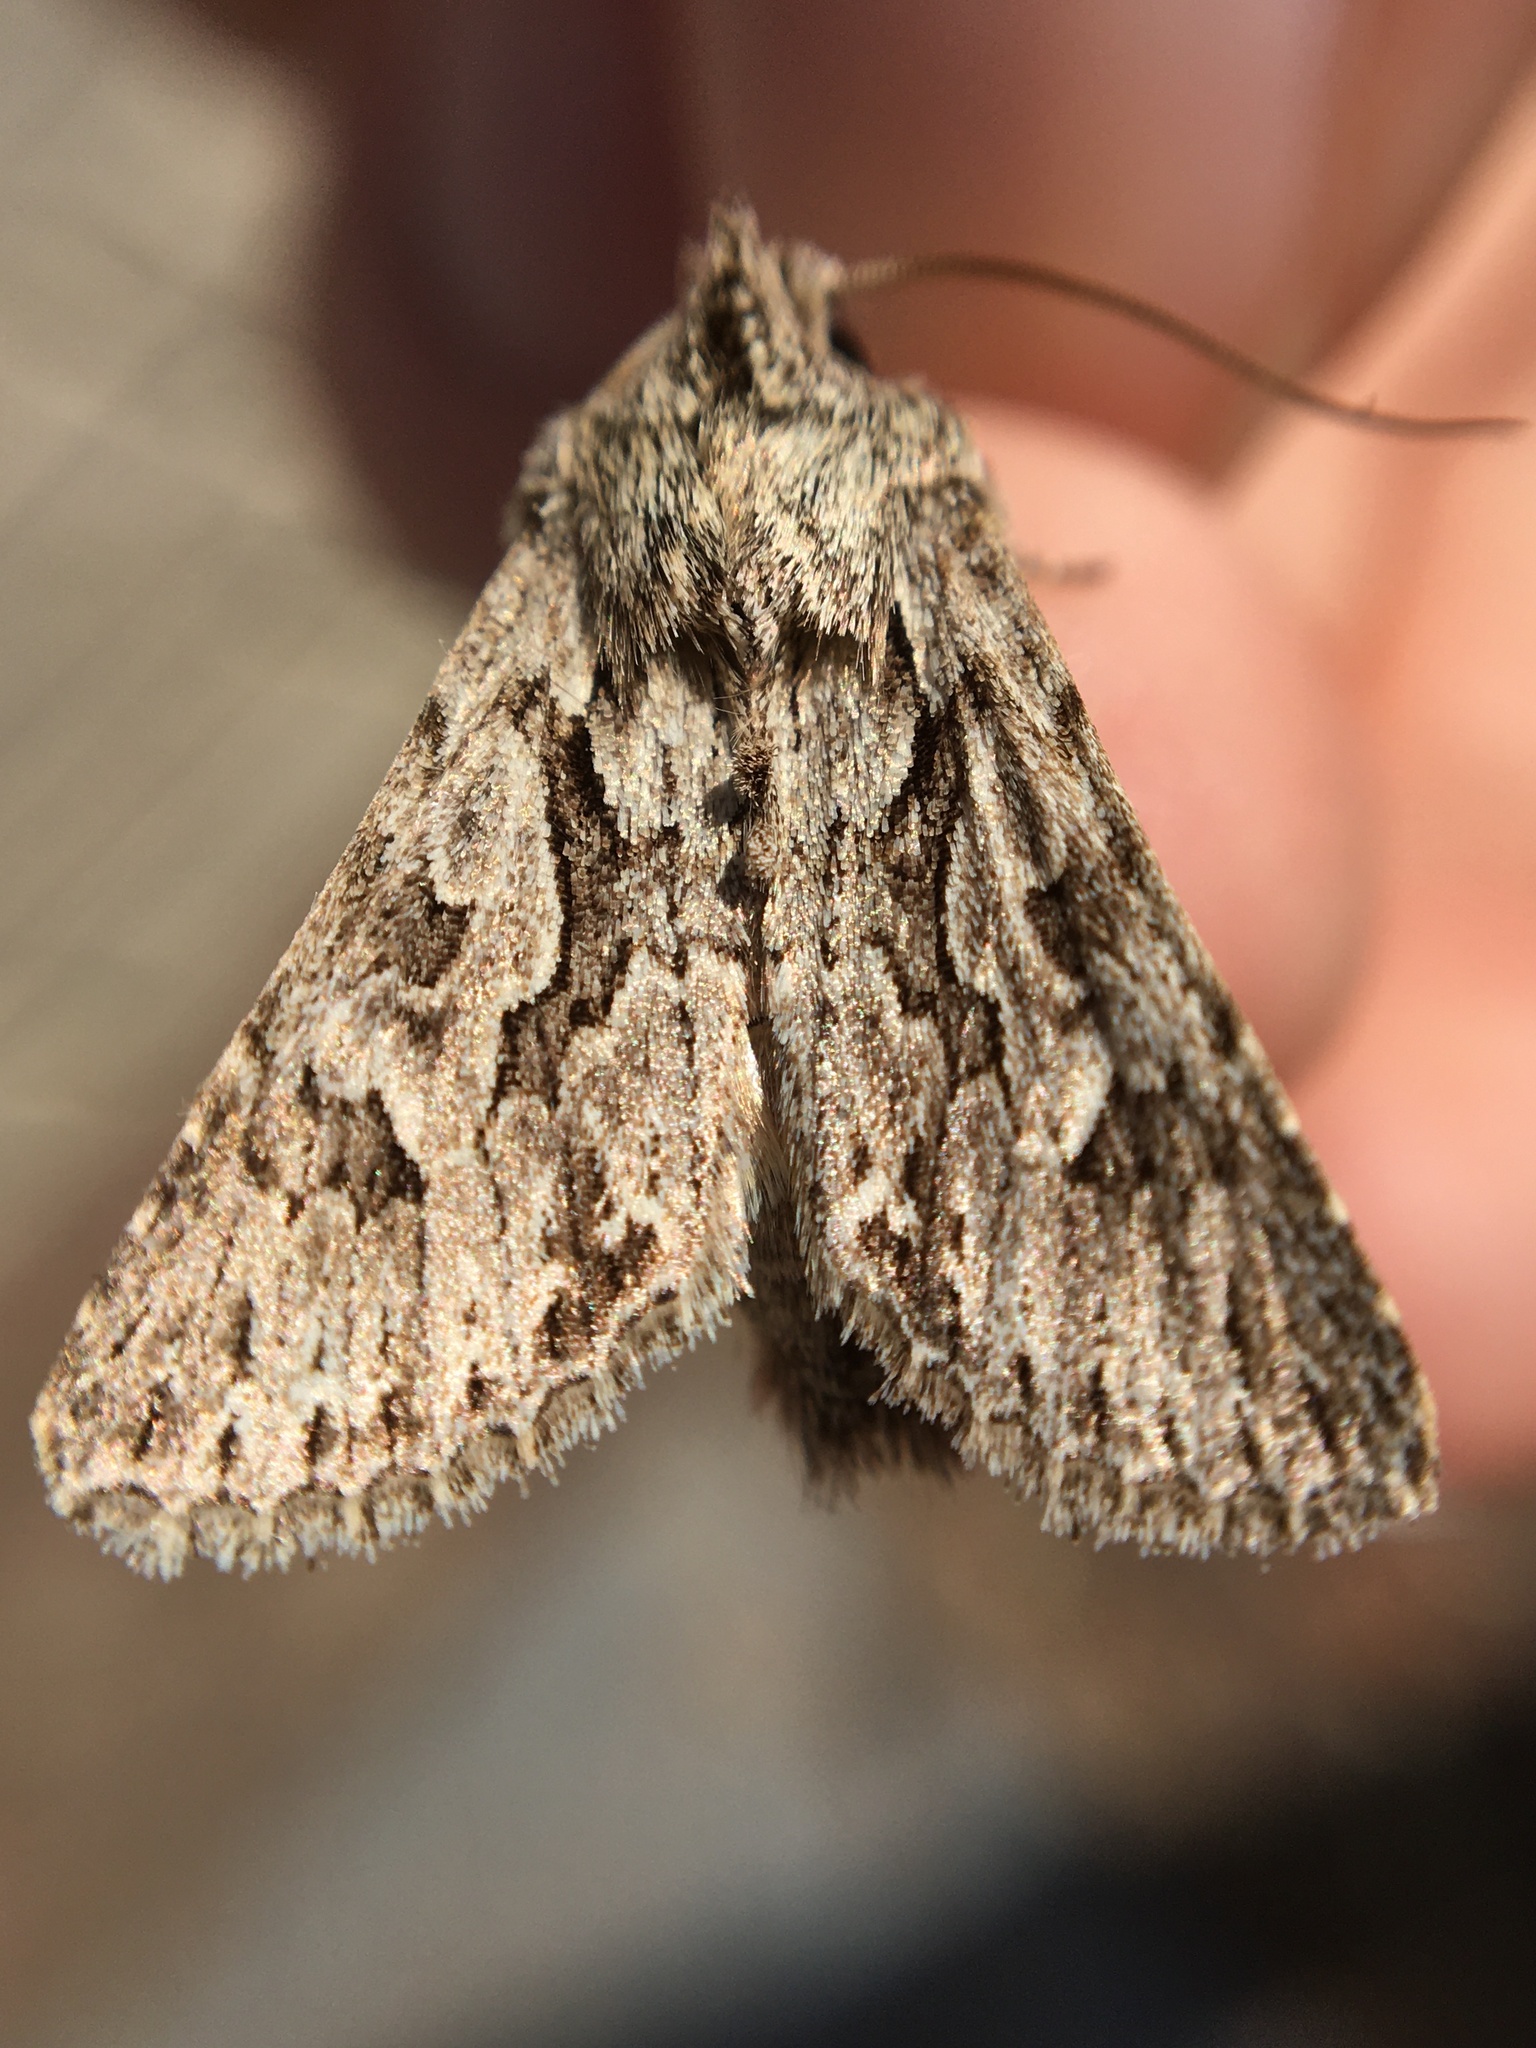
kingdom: Animalia
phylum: Arthropoda
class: Insecta
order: Lepidoptera
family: Noctuidae
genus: Xylocampa
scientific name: Xylocampa areola
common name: Early grey
